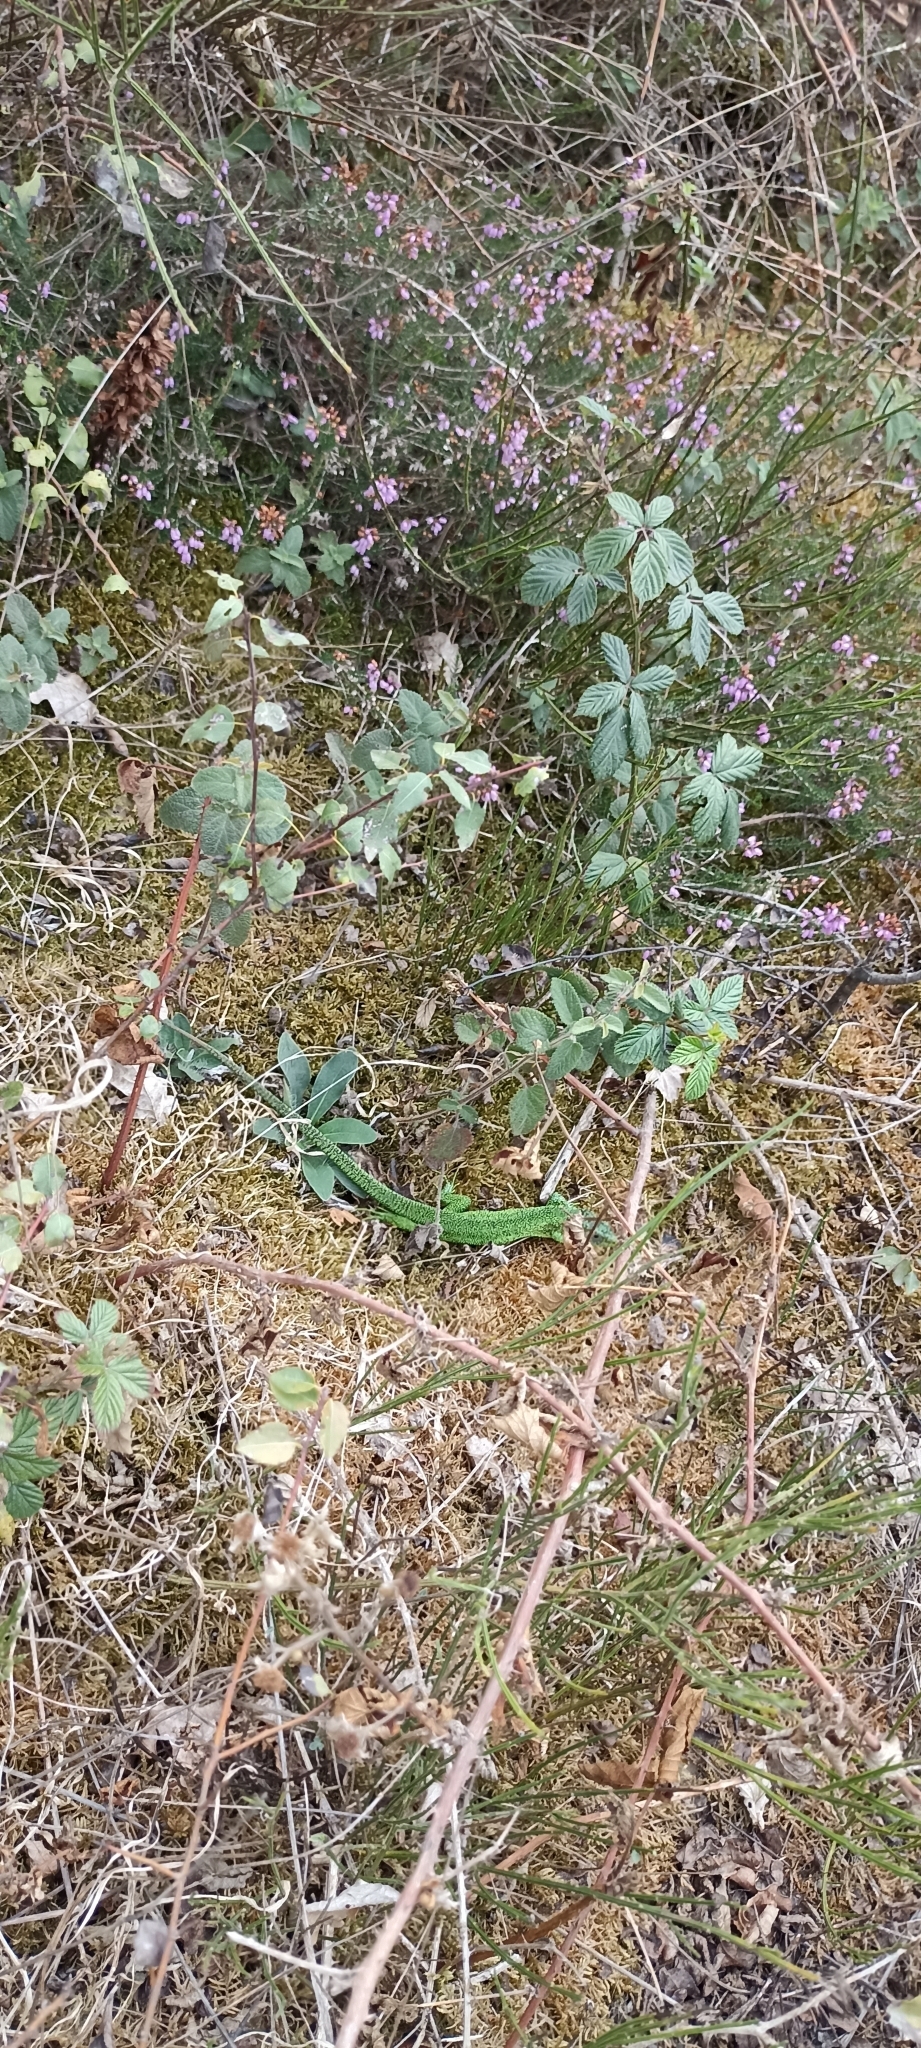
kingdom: Animalia
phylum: Chordata
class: Squamata
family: Lacertidae
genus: Lacerta
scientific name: Lacerta bilineata
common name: Western green lizard
